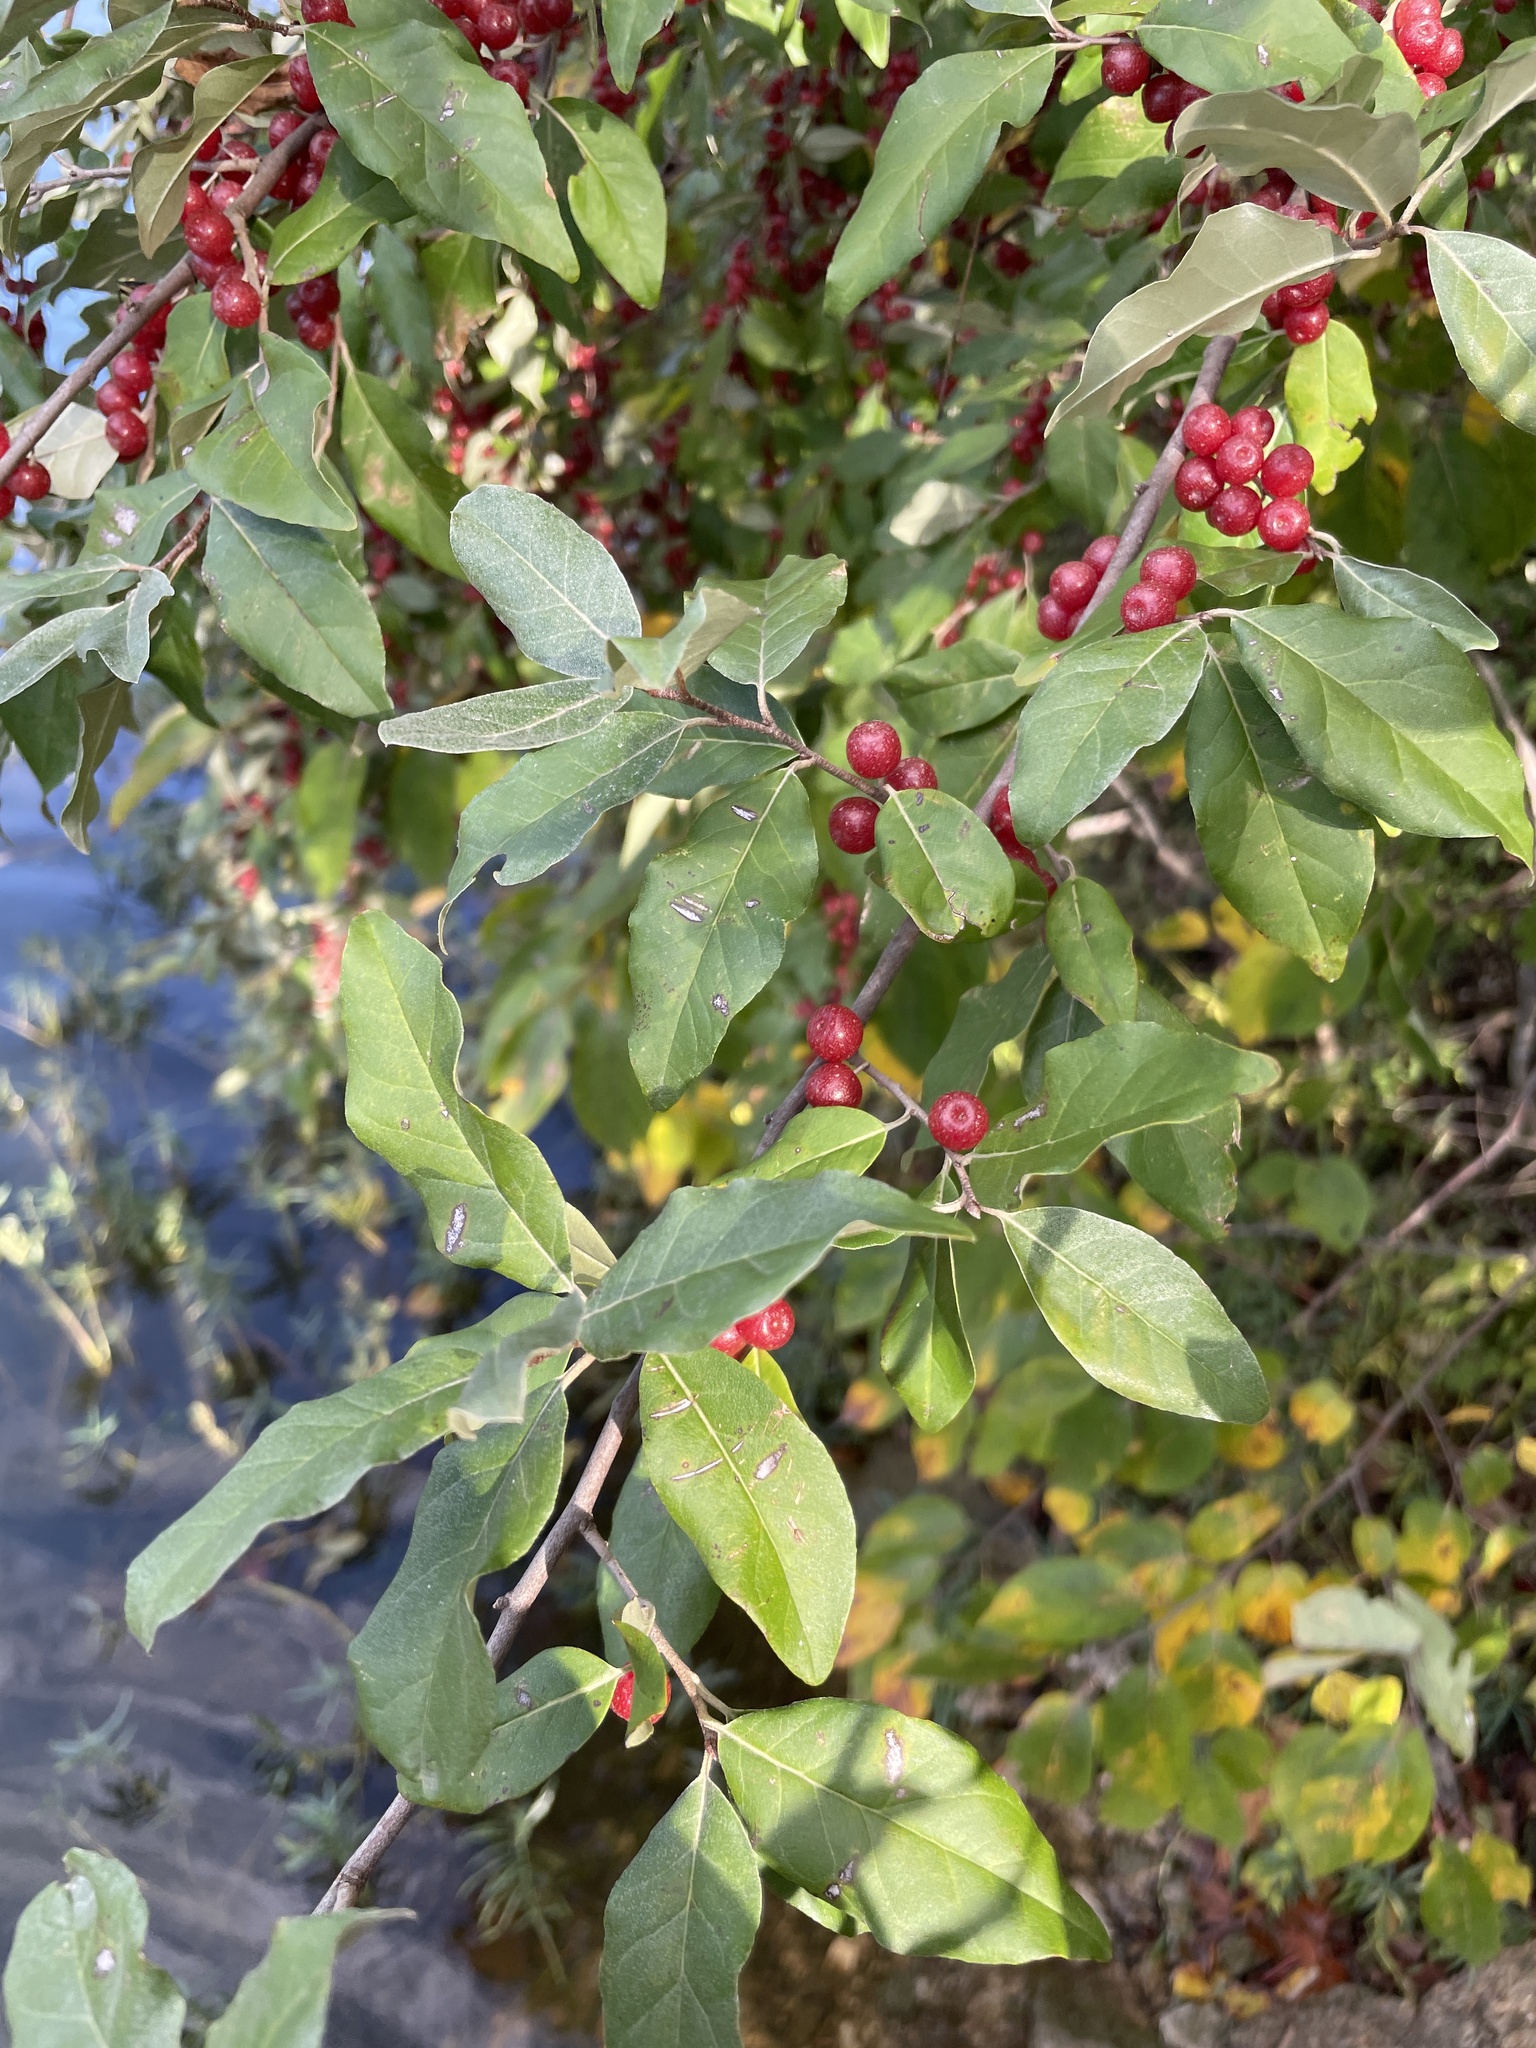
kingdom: Plantae
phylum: Tracheophyta
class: Magnoliopsida
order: Rosales
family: Elaeagnaceae
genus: Elaeagnus
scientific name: Elaeagnus umbellata
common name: Autumn olive
